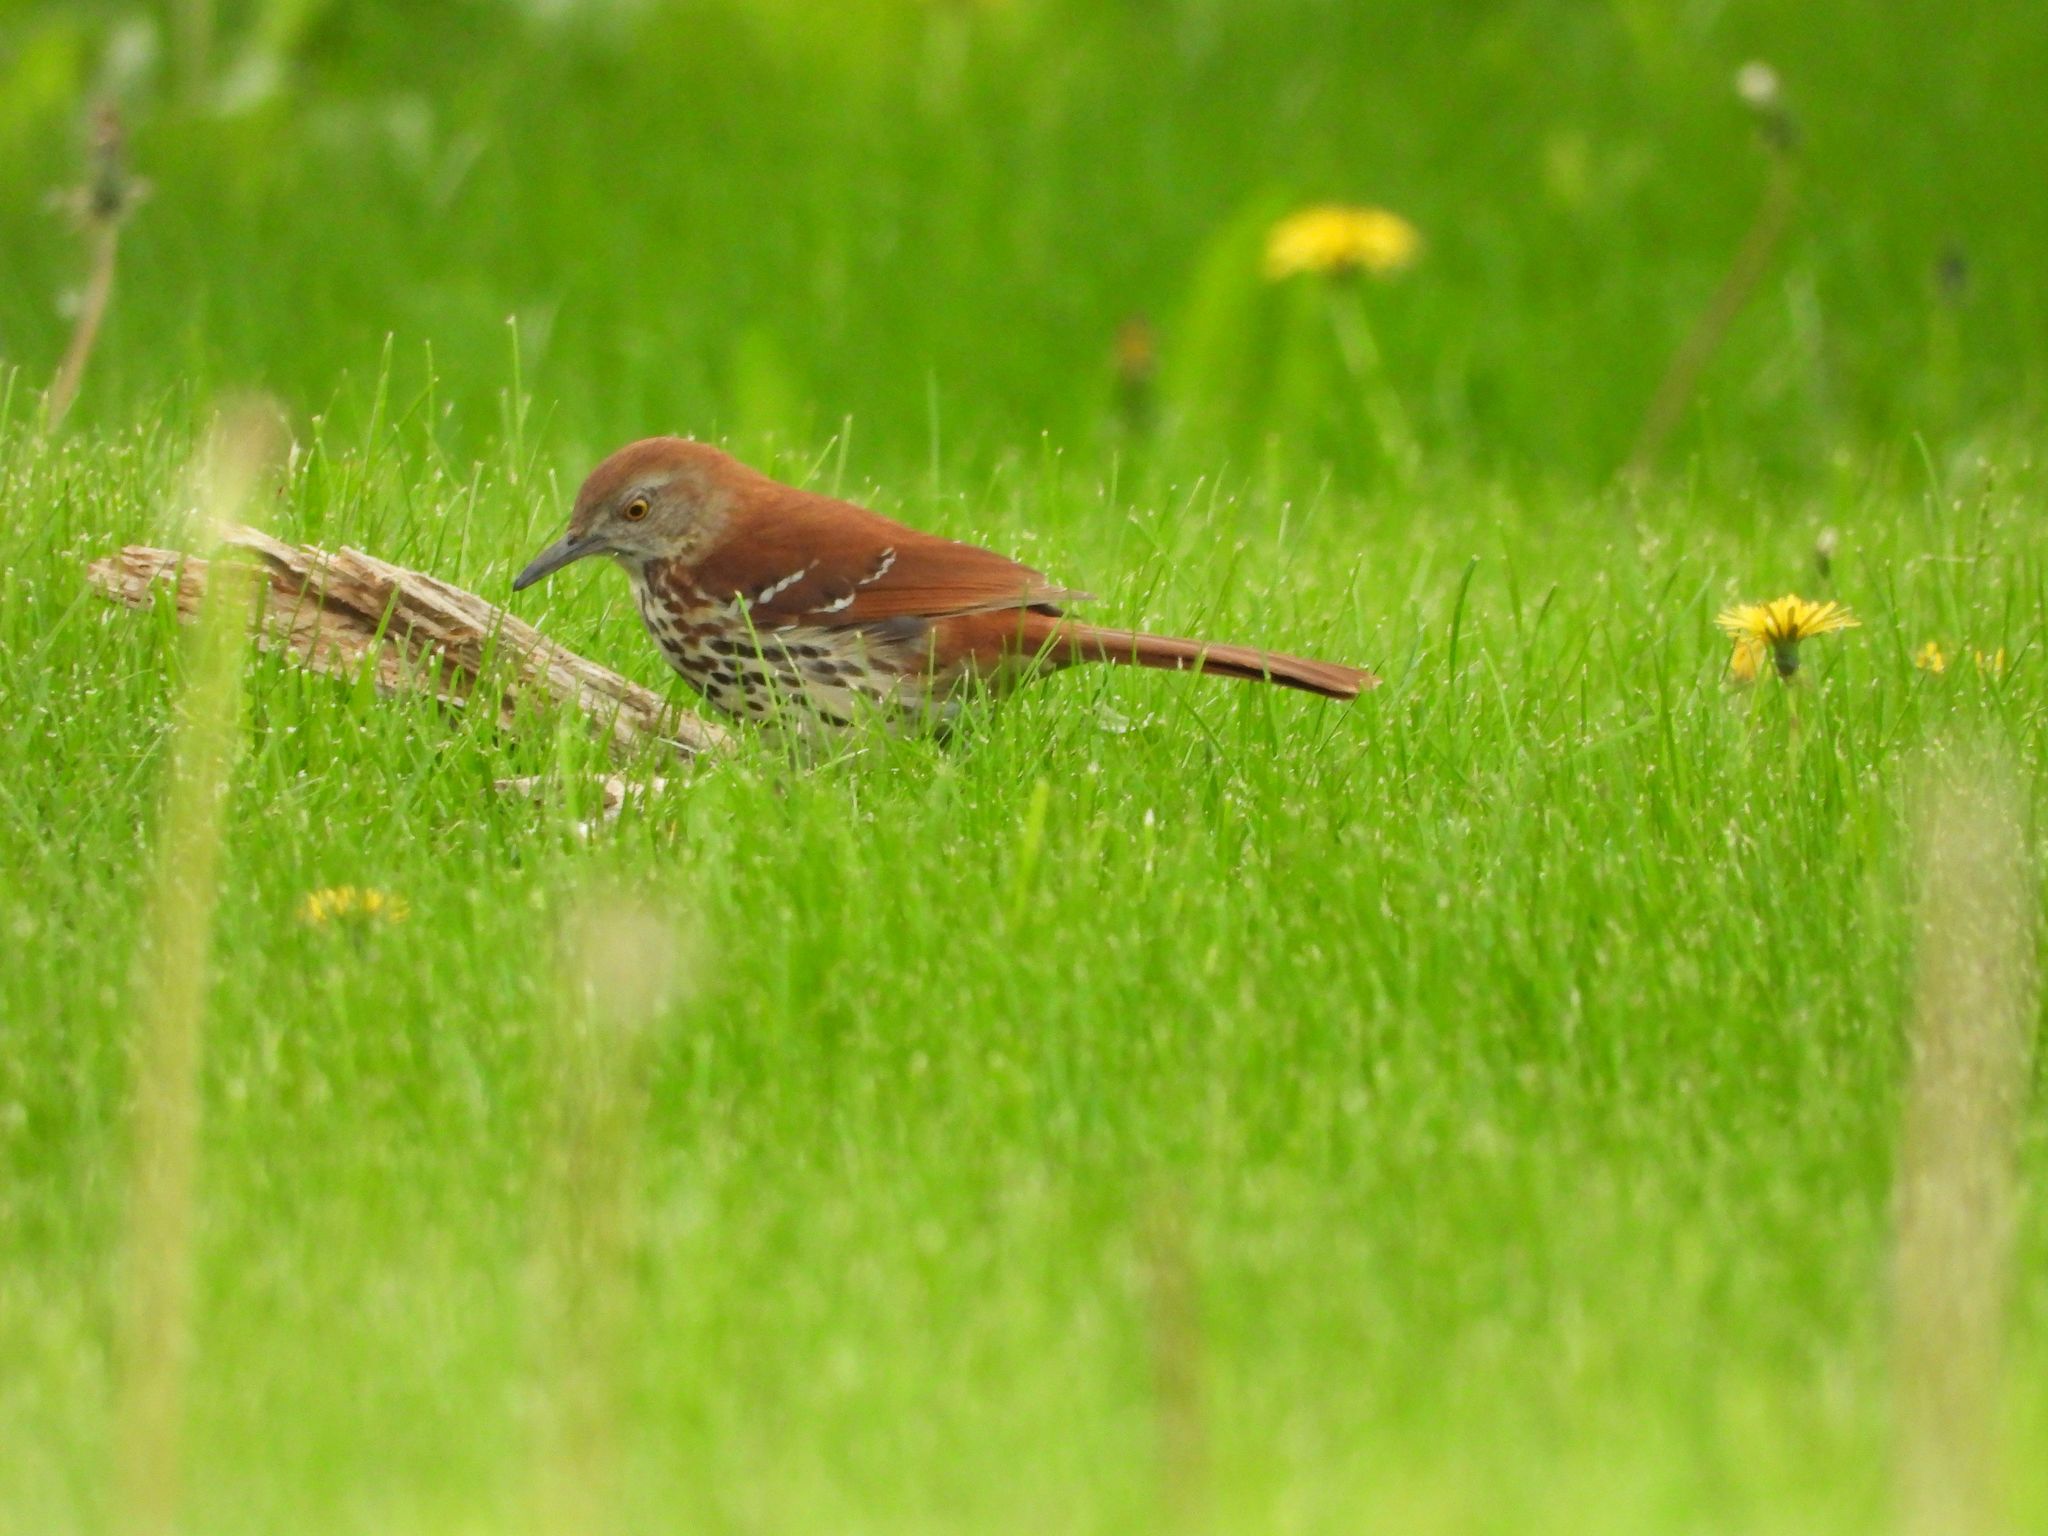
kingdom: Animalia
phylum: Chordata
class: Aves
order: Passeriformes
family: Mimidae
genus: Toxostoma
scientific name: Toxostoma rufum
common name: Brown thrasher
